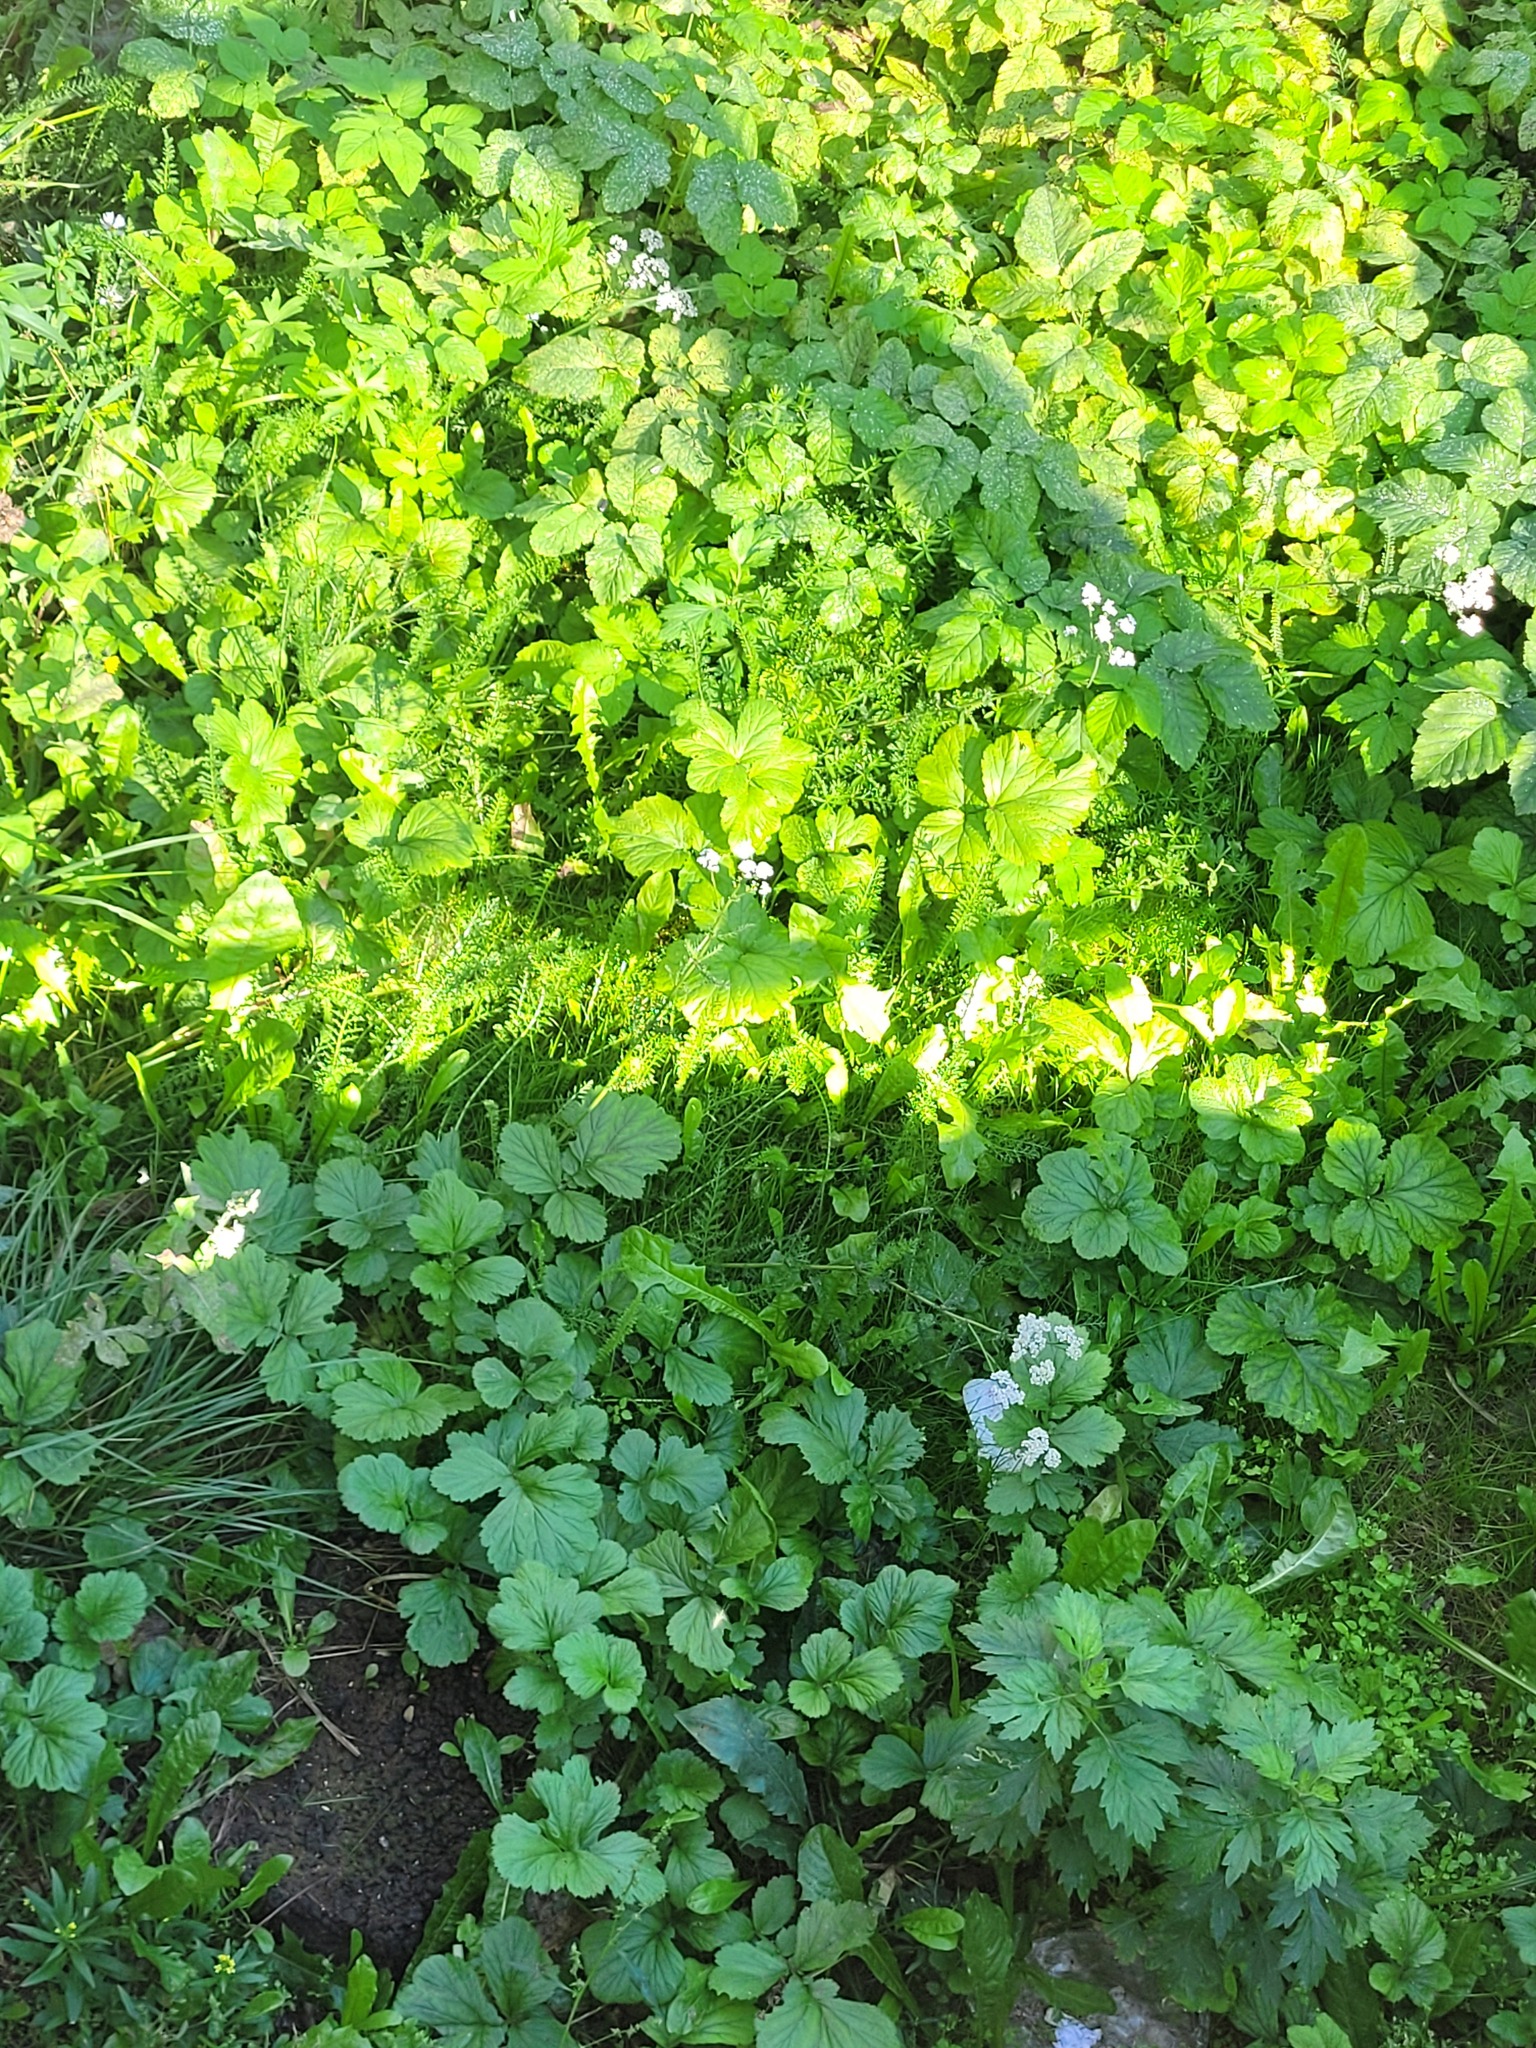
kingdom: Plantae
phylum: Tracheophyta
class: Magnoliopsida
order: Asterales
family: Asteraceae
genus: Achillea
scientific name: Achillea millefolium
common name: Yarrow
